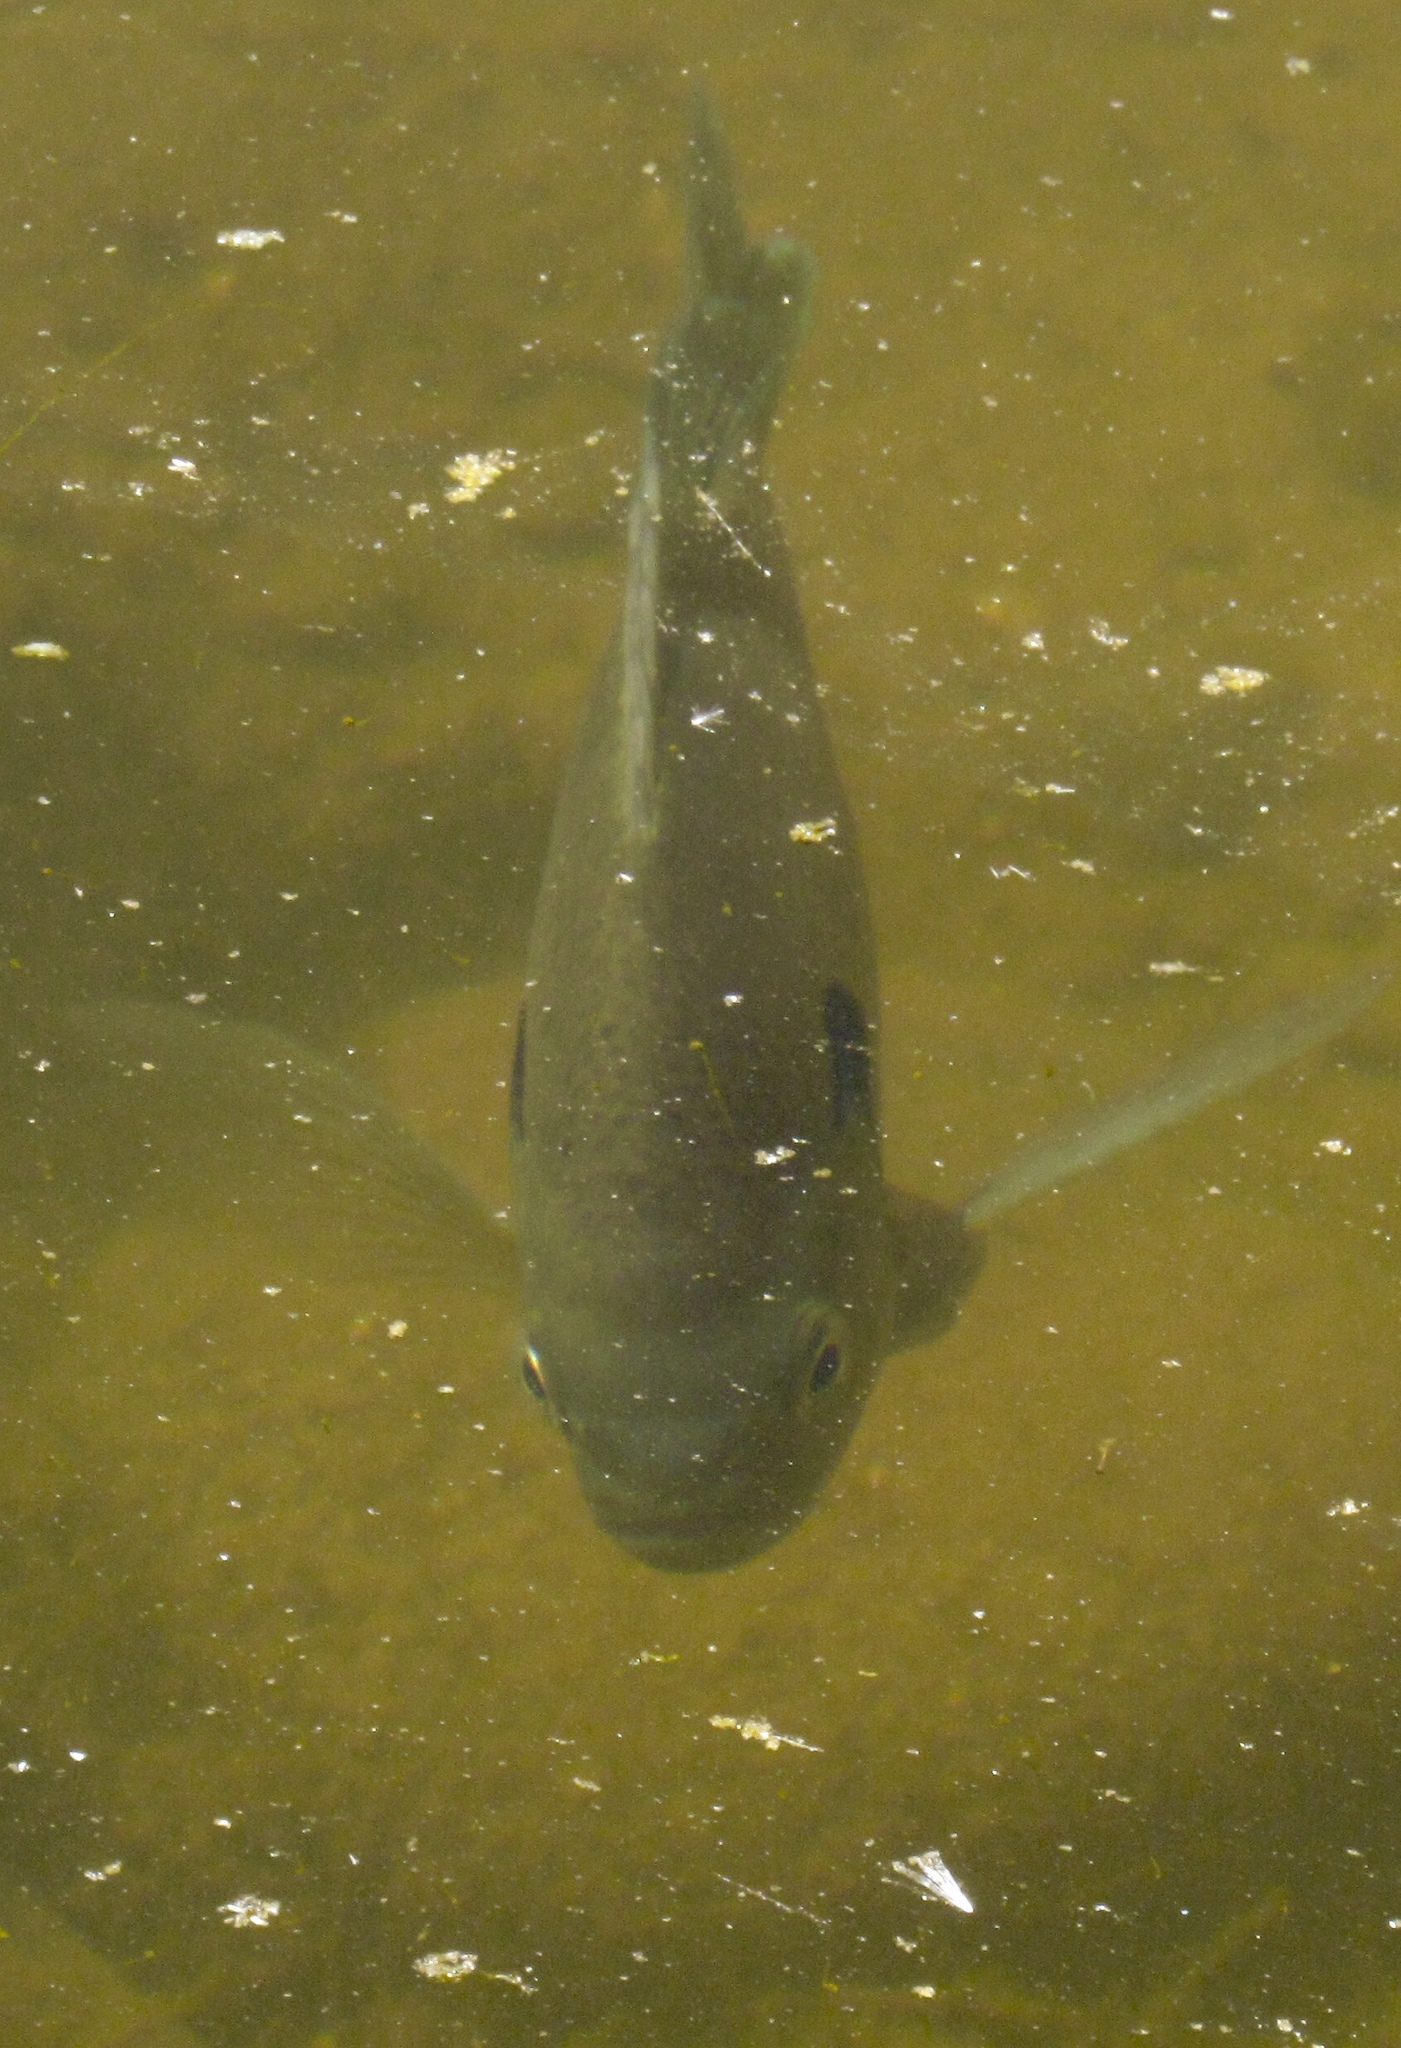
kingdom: Animalia
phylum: Chordata
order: Perciformes
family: Centrarchidae
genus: Micropterus
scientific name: Micropterus
